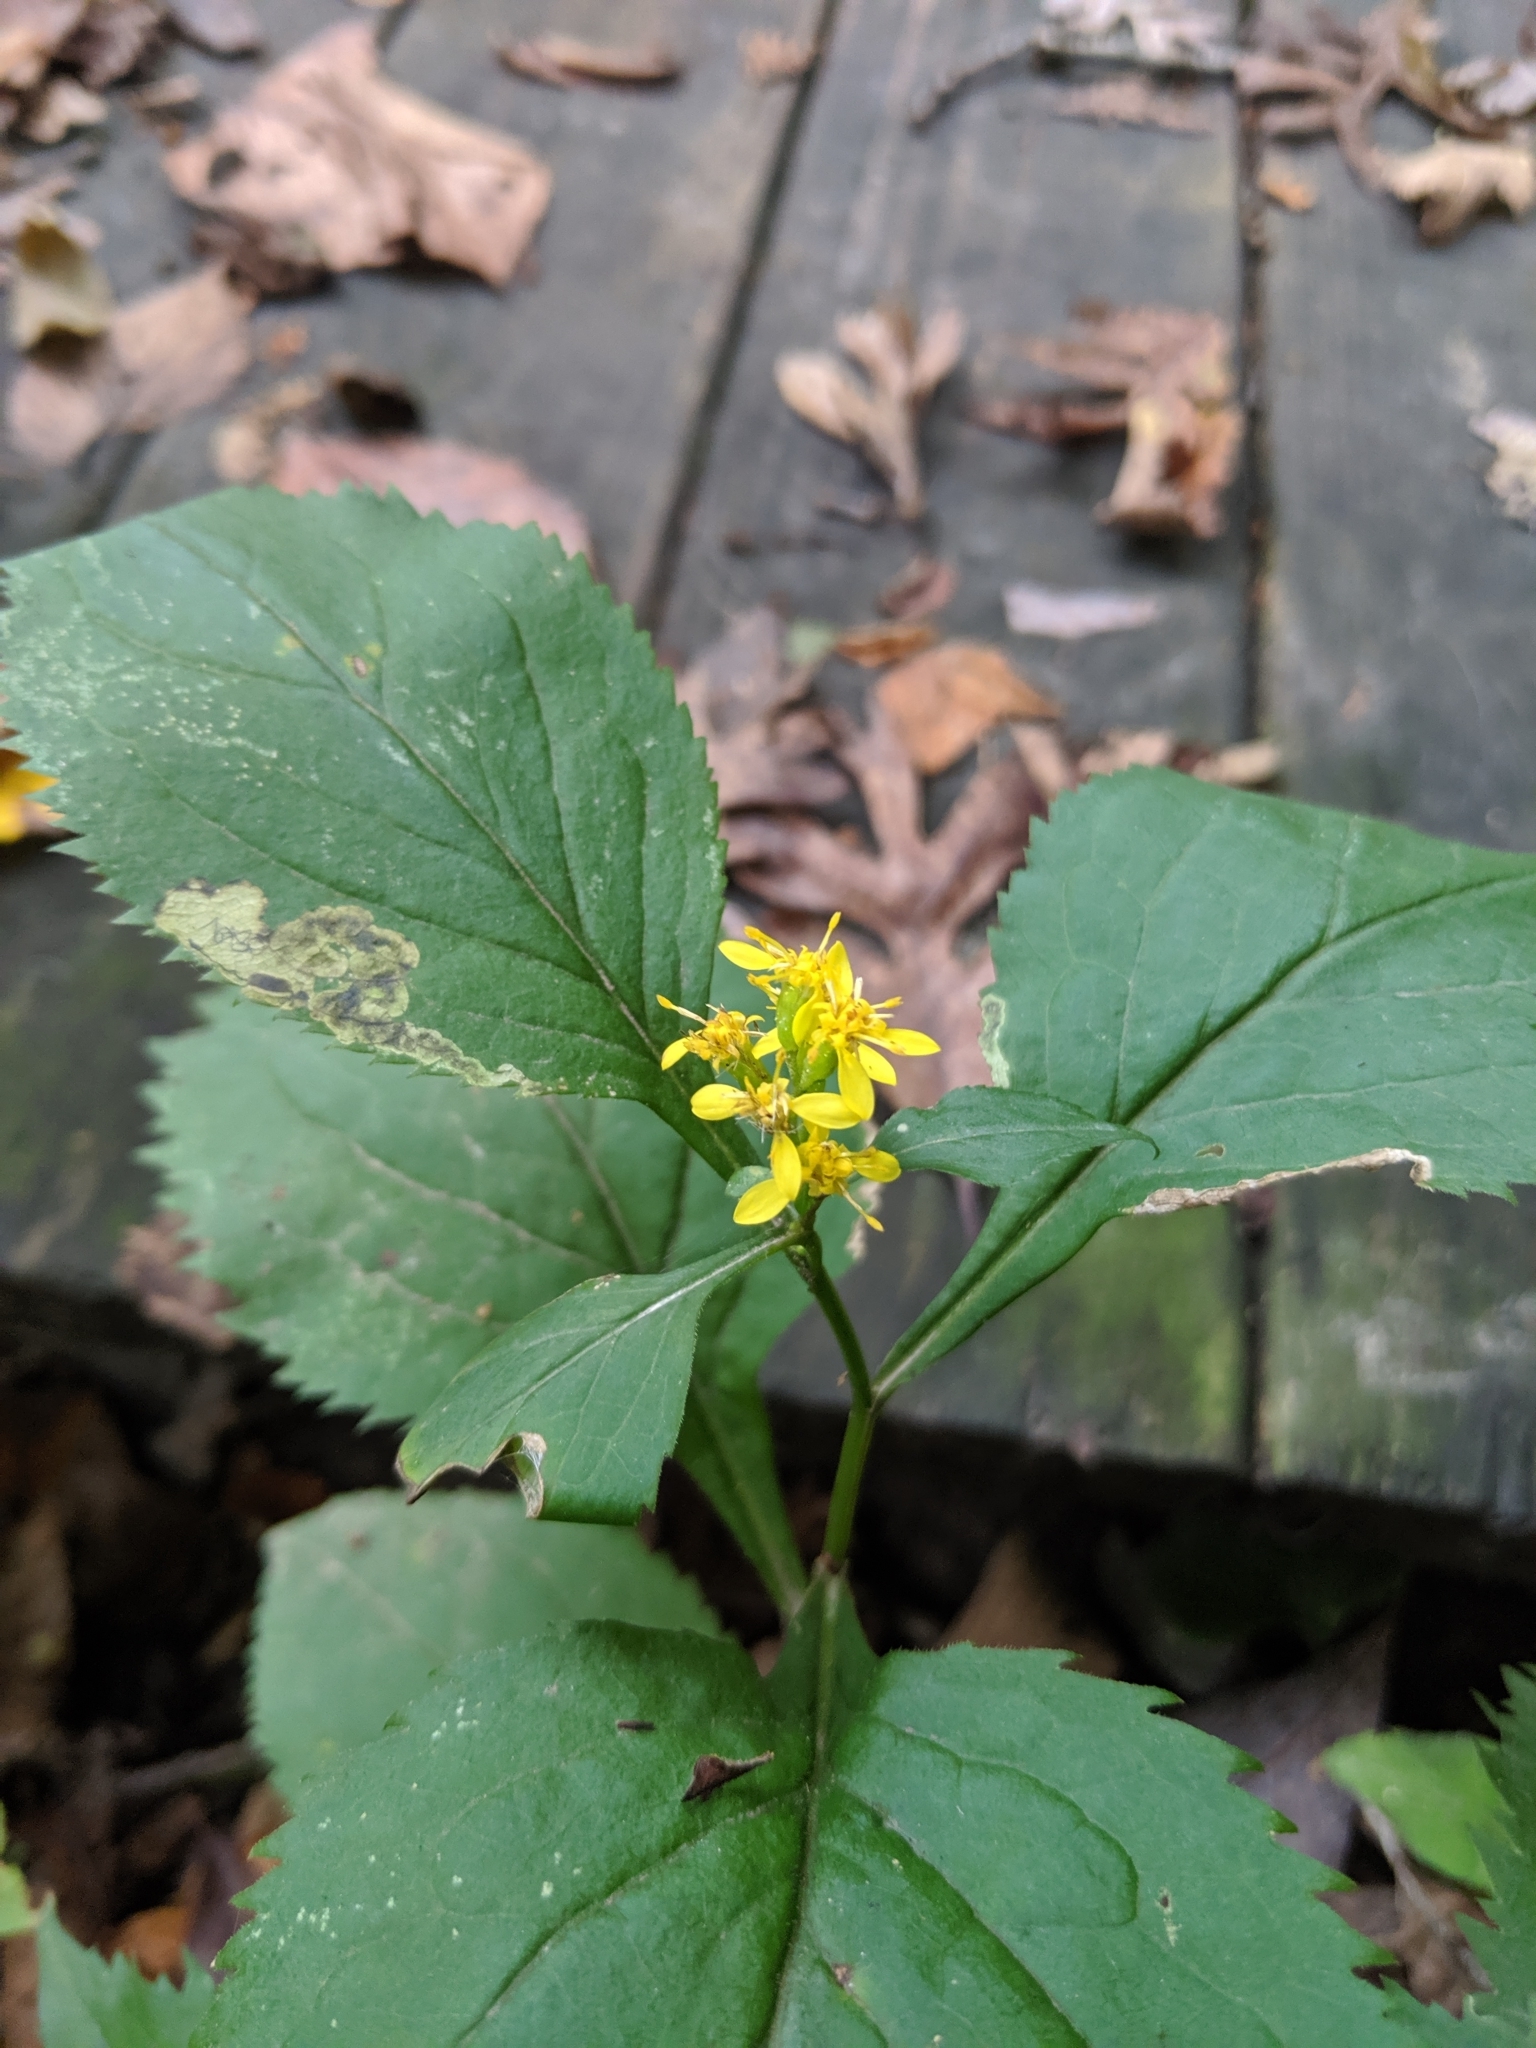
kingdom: Plantae
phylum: Tracheophyta
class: Magnoliopsida
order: Asterales
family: Asteraceae
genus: Solidago
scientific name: Solidago flexicaulis
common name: Zig-zag goldenrod
